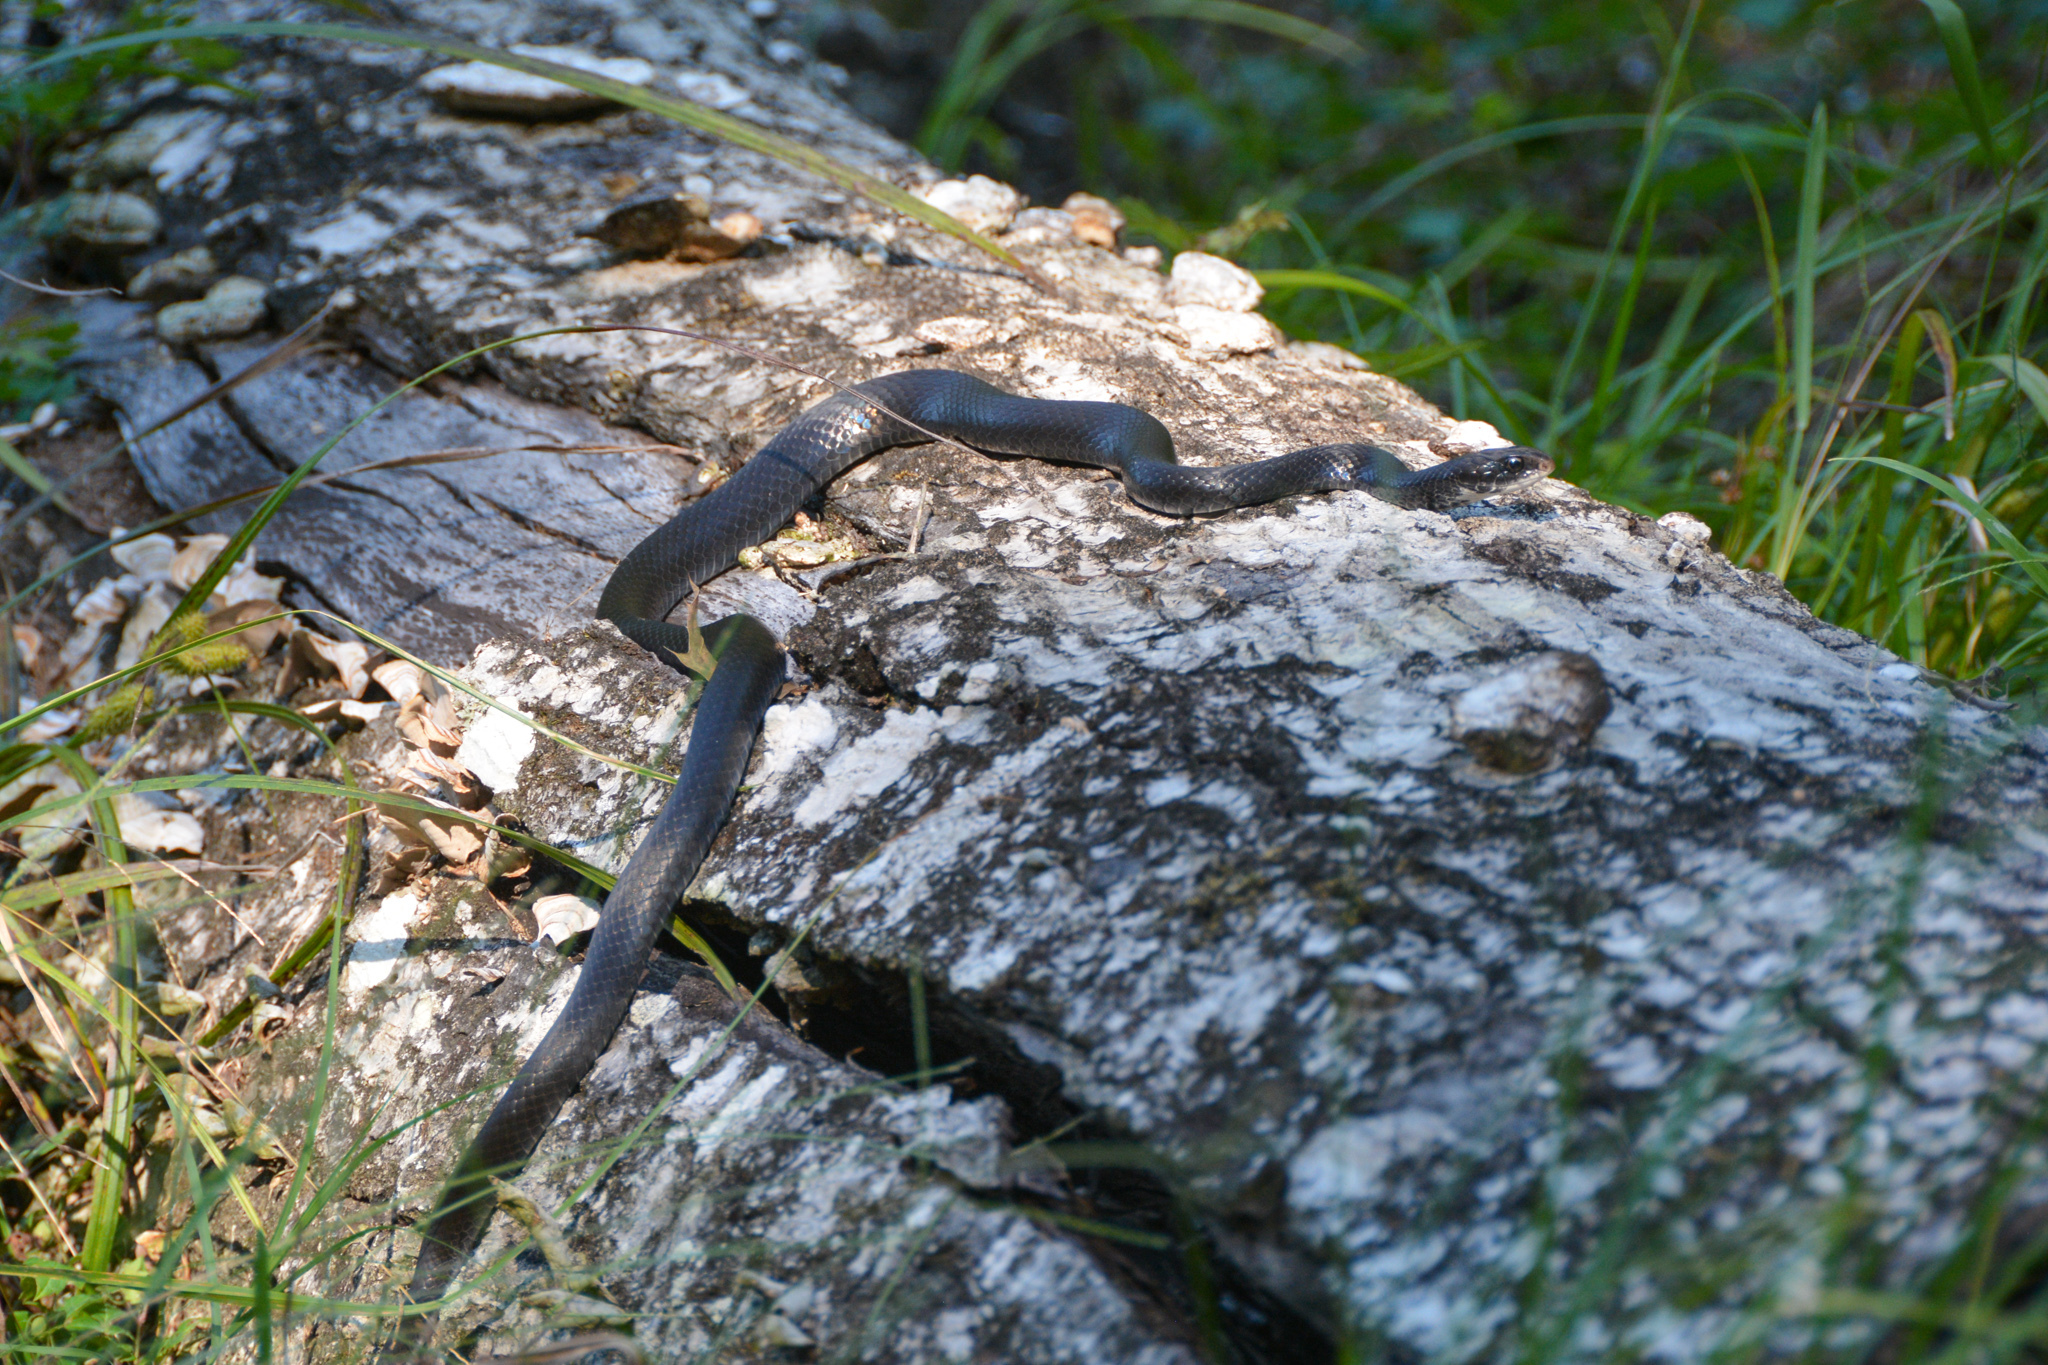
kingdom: Animalia
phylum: Chordata
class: Squamata
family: Colubridae
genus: Coluber
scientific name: Coluber constrictor
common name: Eastern racer
